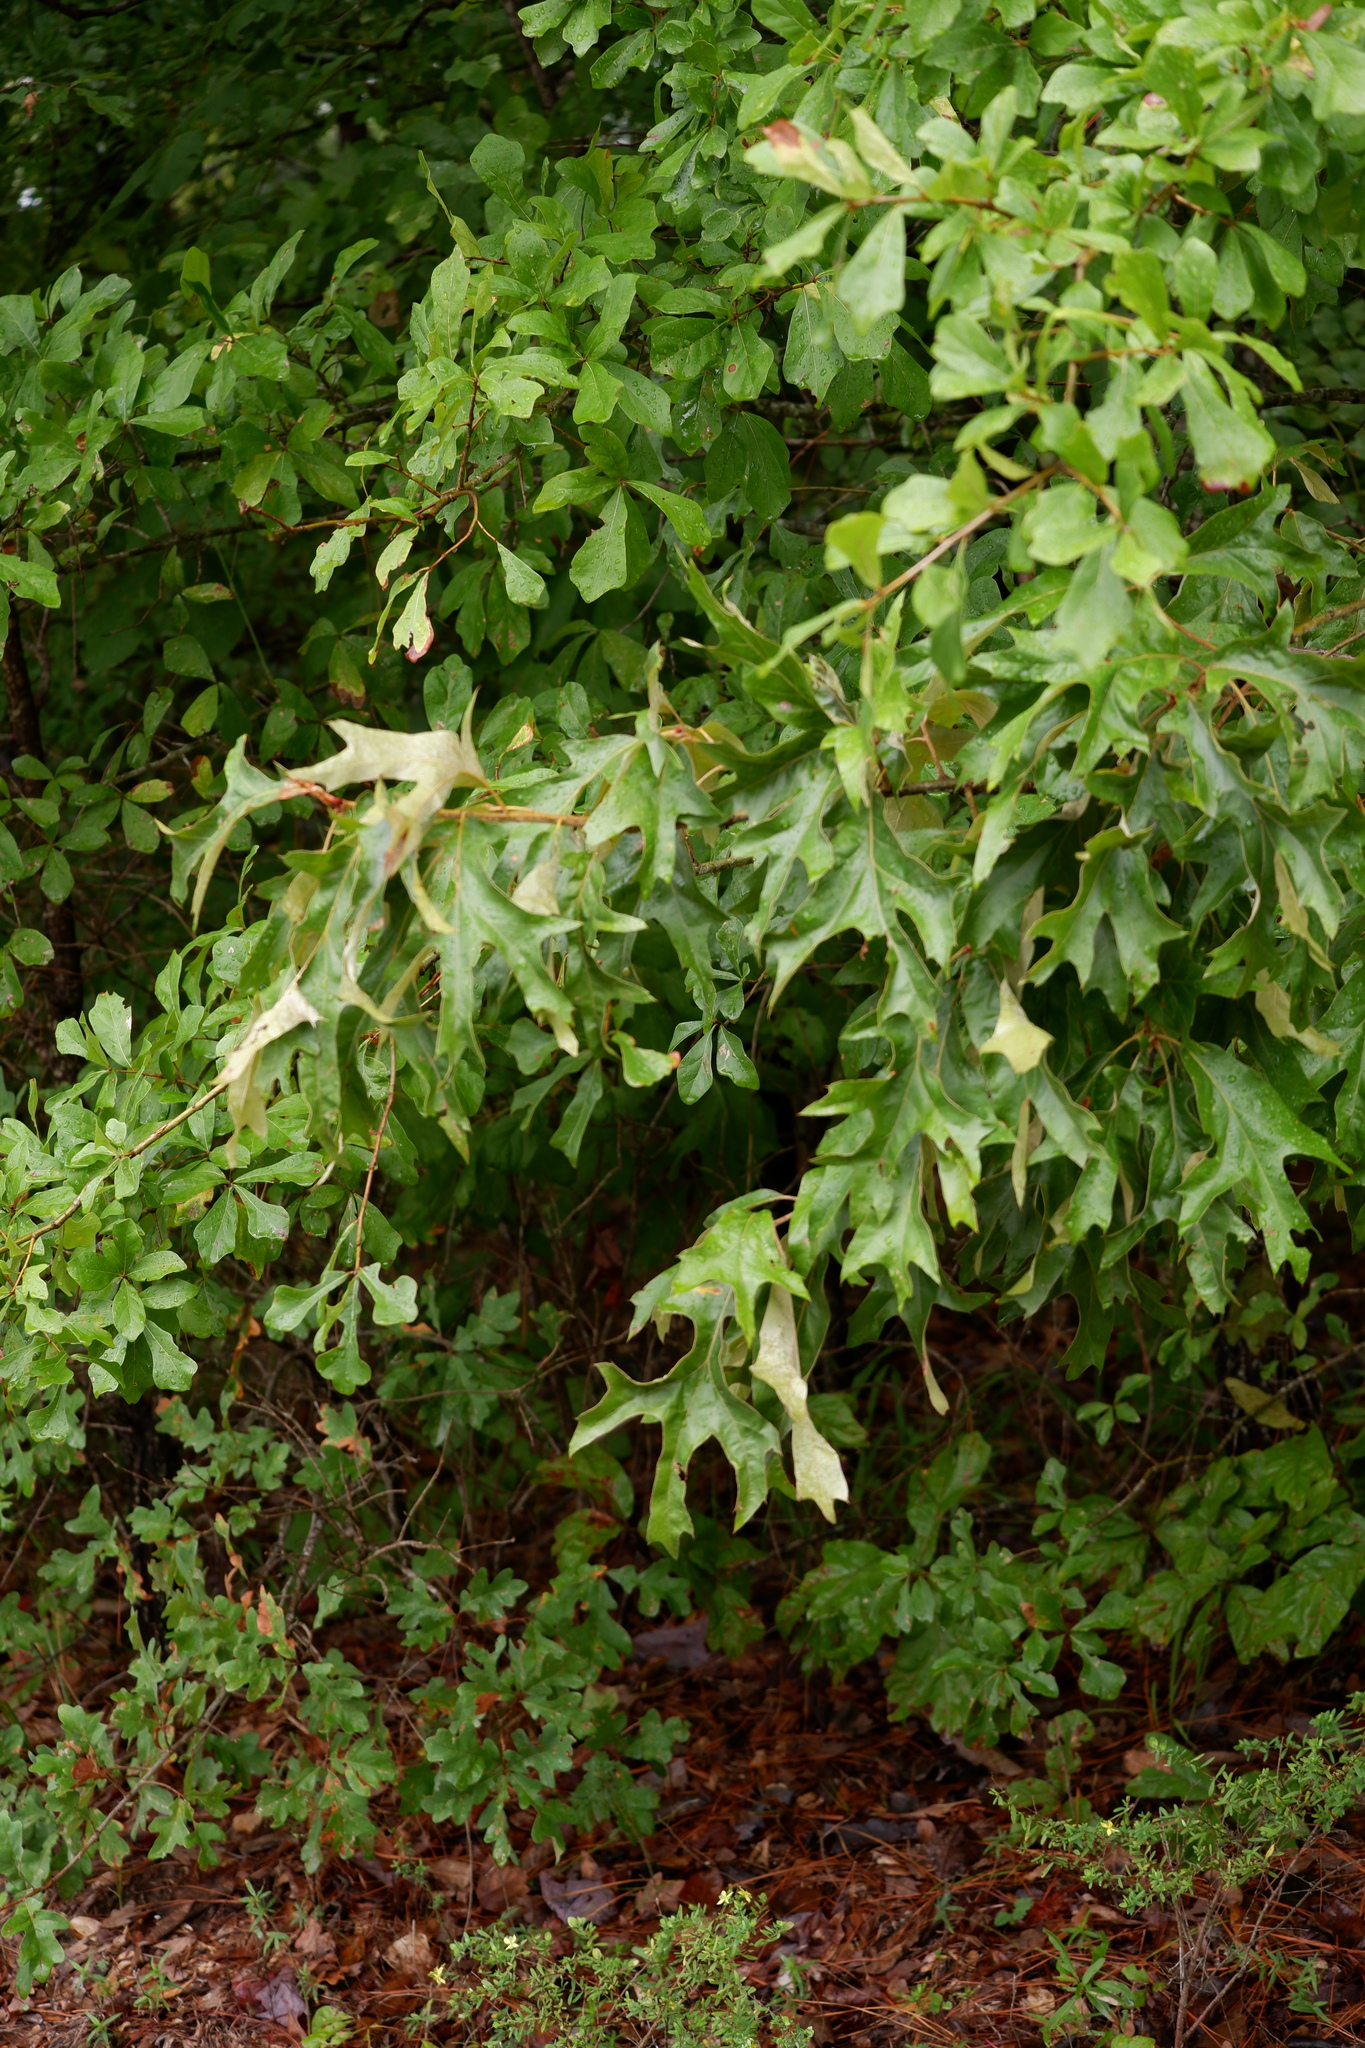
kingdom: Plantae
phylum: Tracheophyta
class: Magnoliopsida
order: Fagales
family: Fagaceae
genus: Quercus
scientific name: Quercus falcata
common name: Southern red oak
